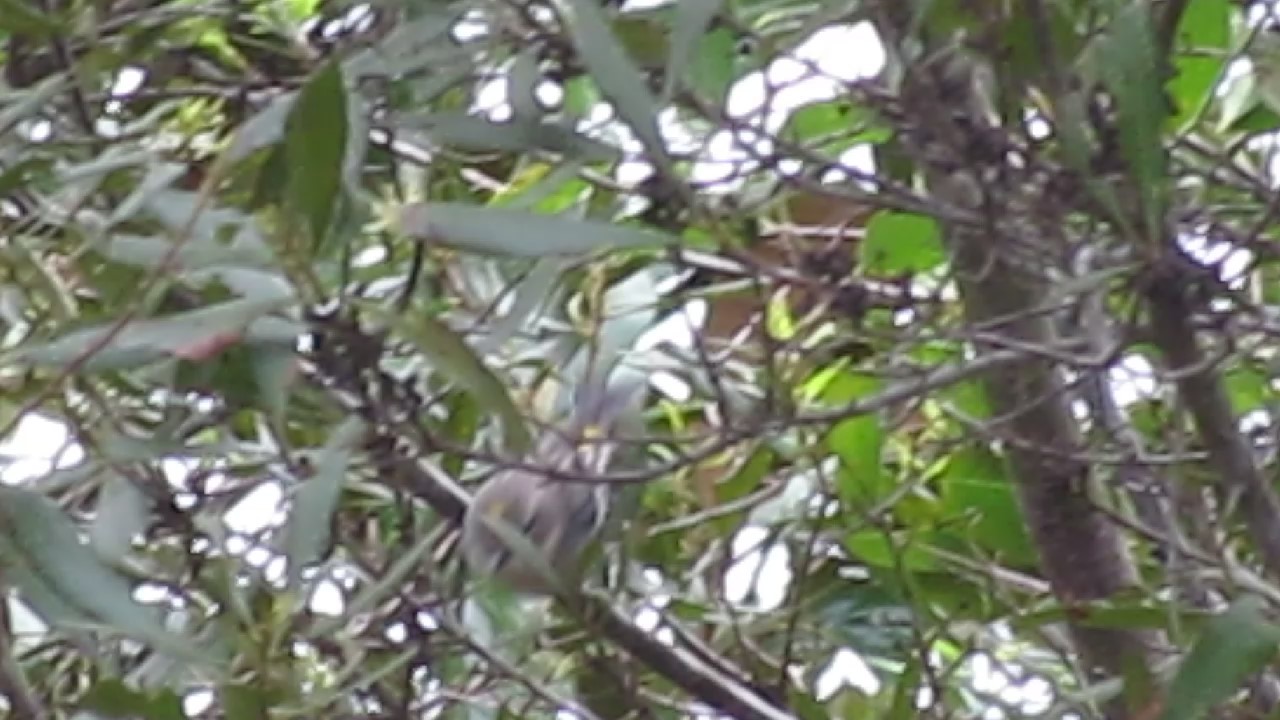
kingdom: Animalia
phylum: Chordata
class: Aves
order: Passeriformes
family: Parulidae
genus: Setophaga
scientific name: Setophaga coronata
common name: Myrtle warbler
